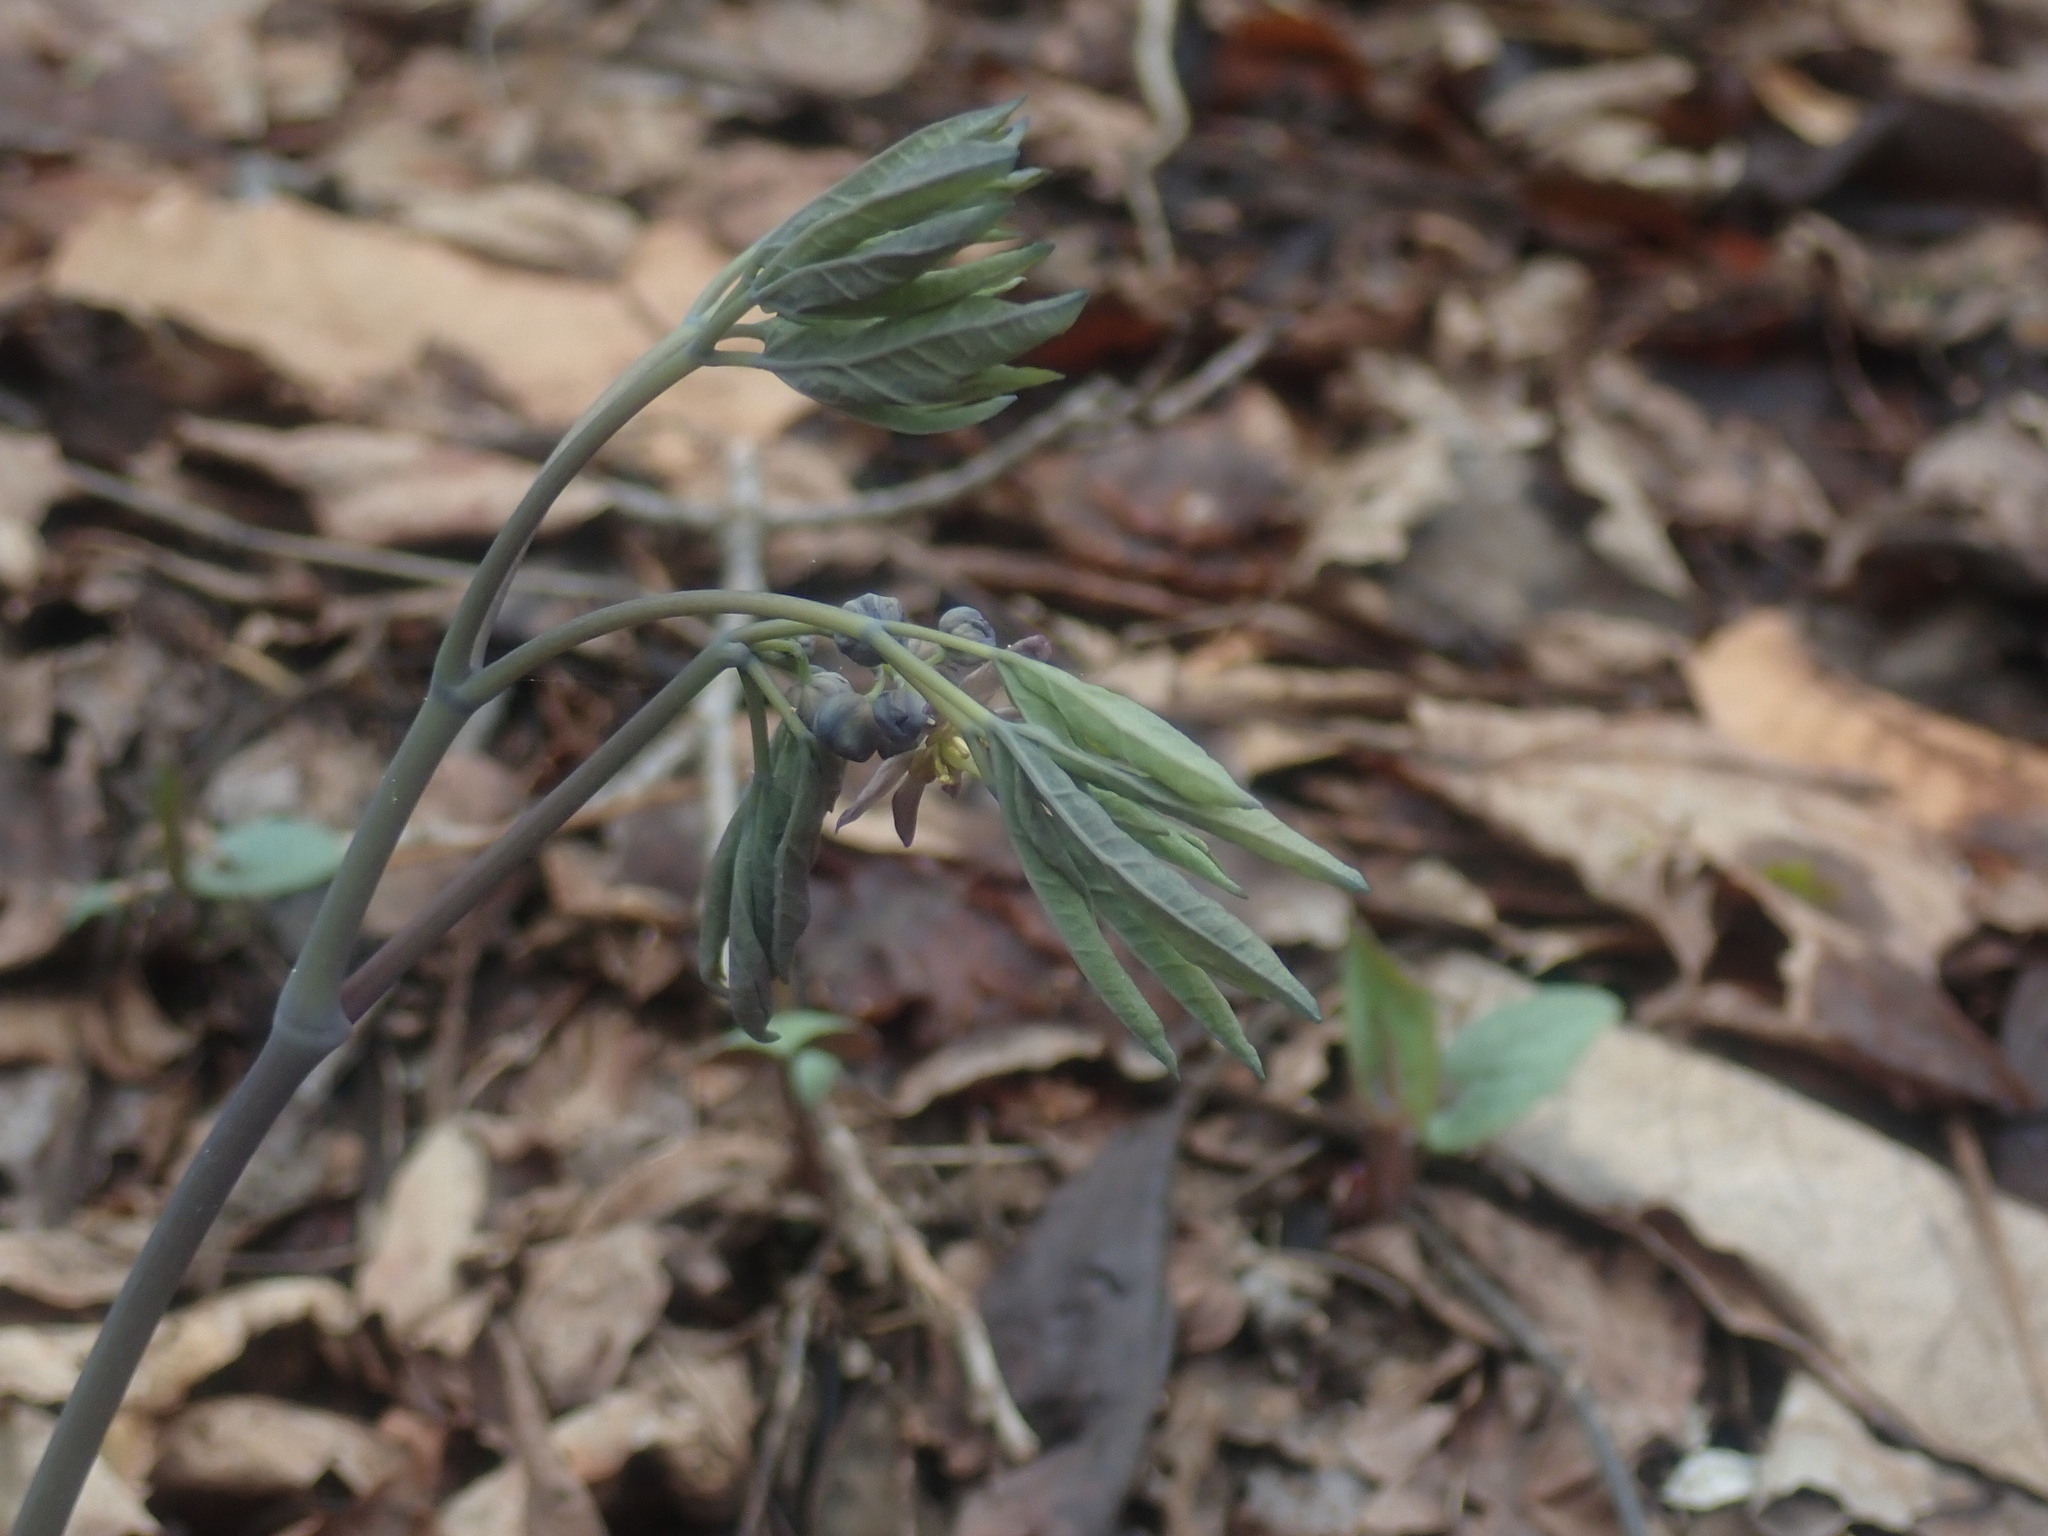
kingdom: Plantae
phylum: Tracheophyta
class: Magnoliopsida
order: Ranunculales
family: Berberidaceae
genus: Caulophyllum
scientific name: Caulophyllum giganteum
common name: Blue cohosh
